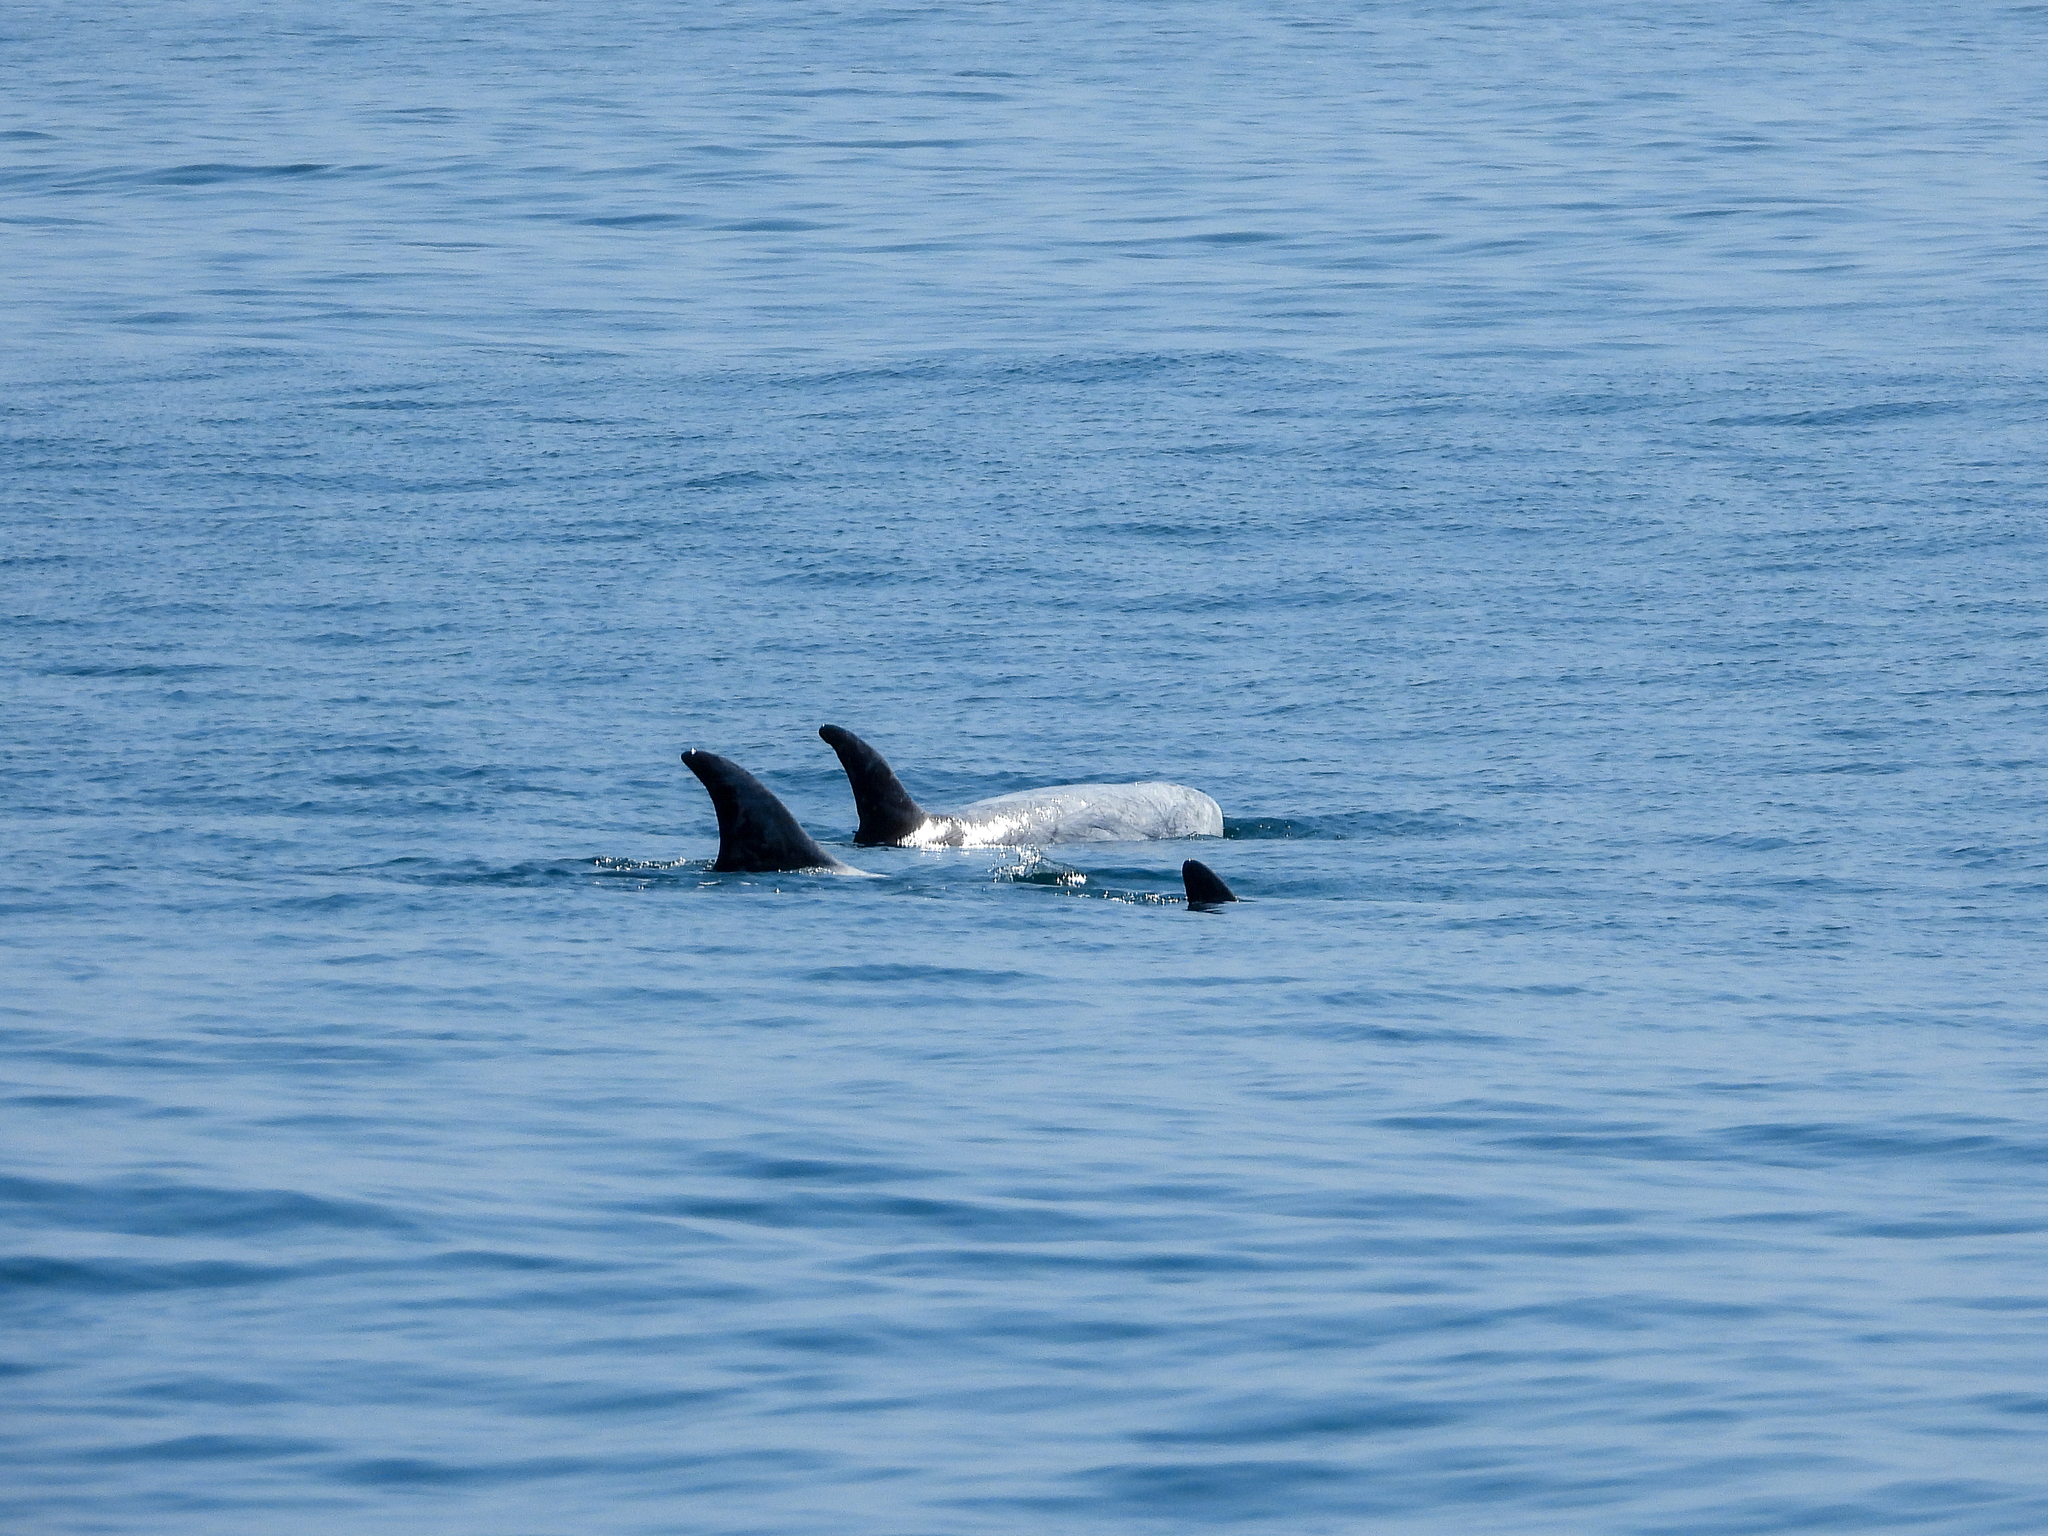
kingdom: Animalia
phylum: Chordata
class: Mammalia
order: Cetacea
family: Delphinidae
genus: Grampus
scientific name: Grampus griseus
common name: Risso's dolphin
